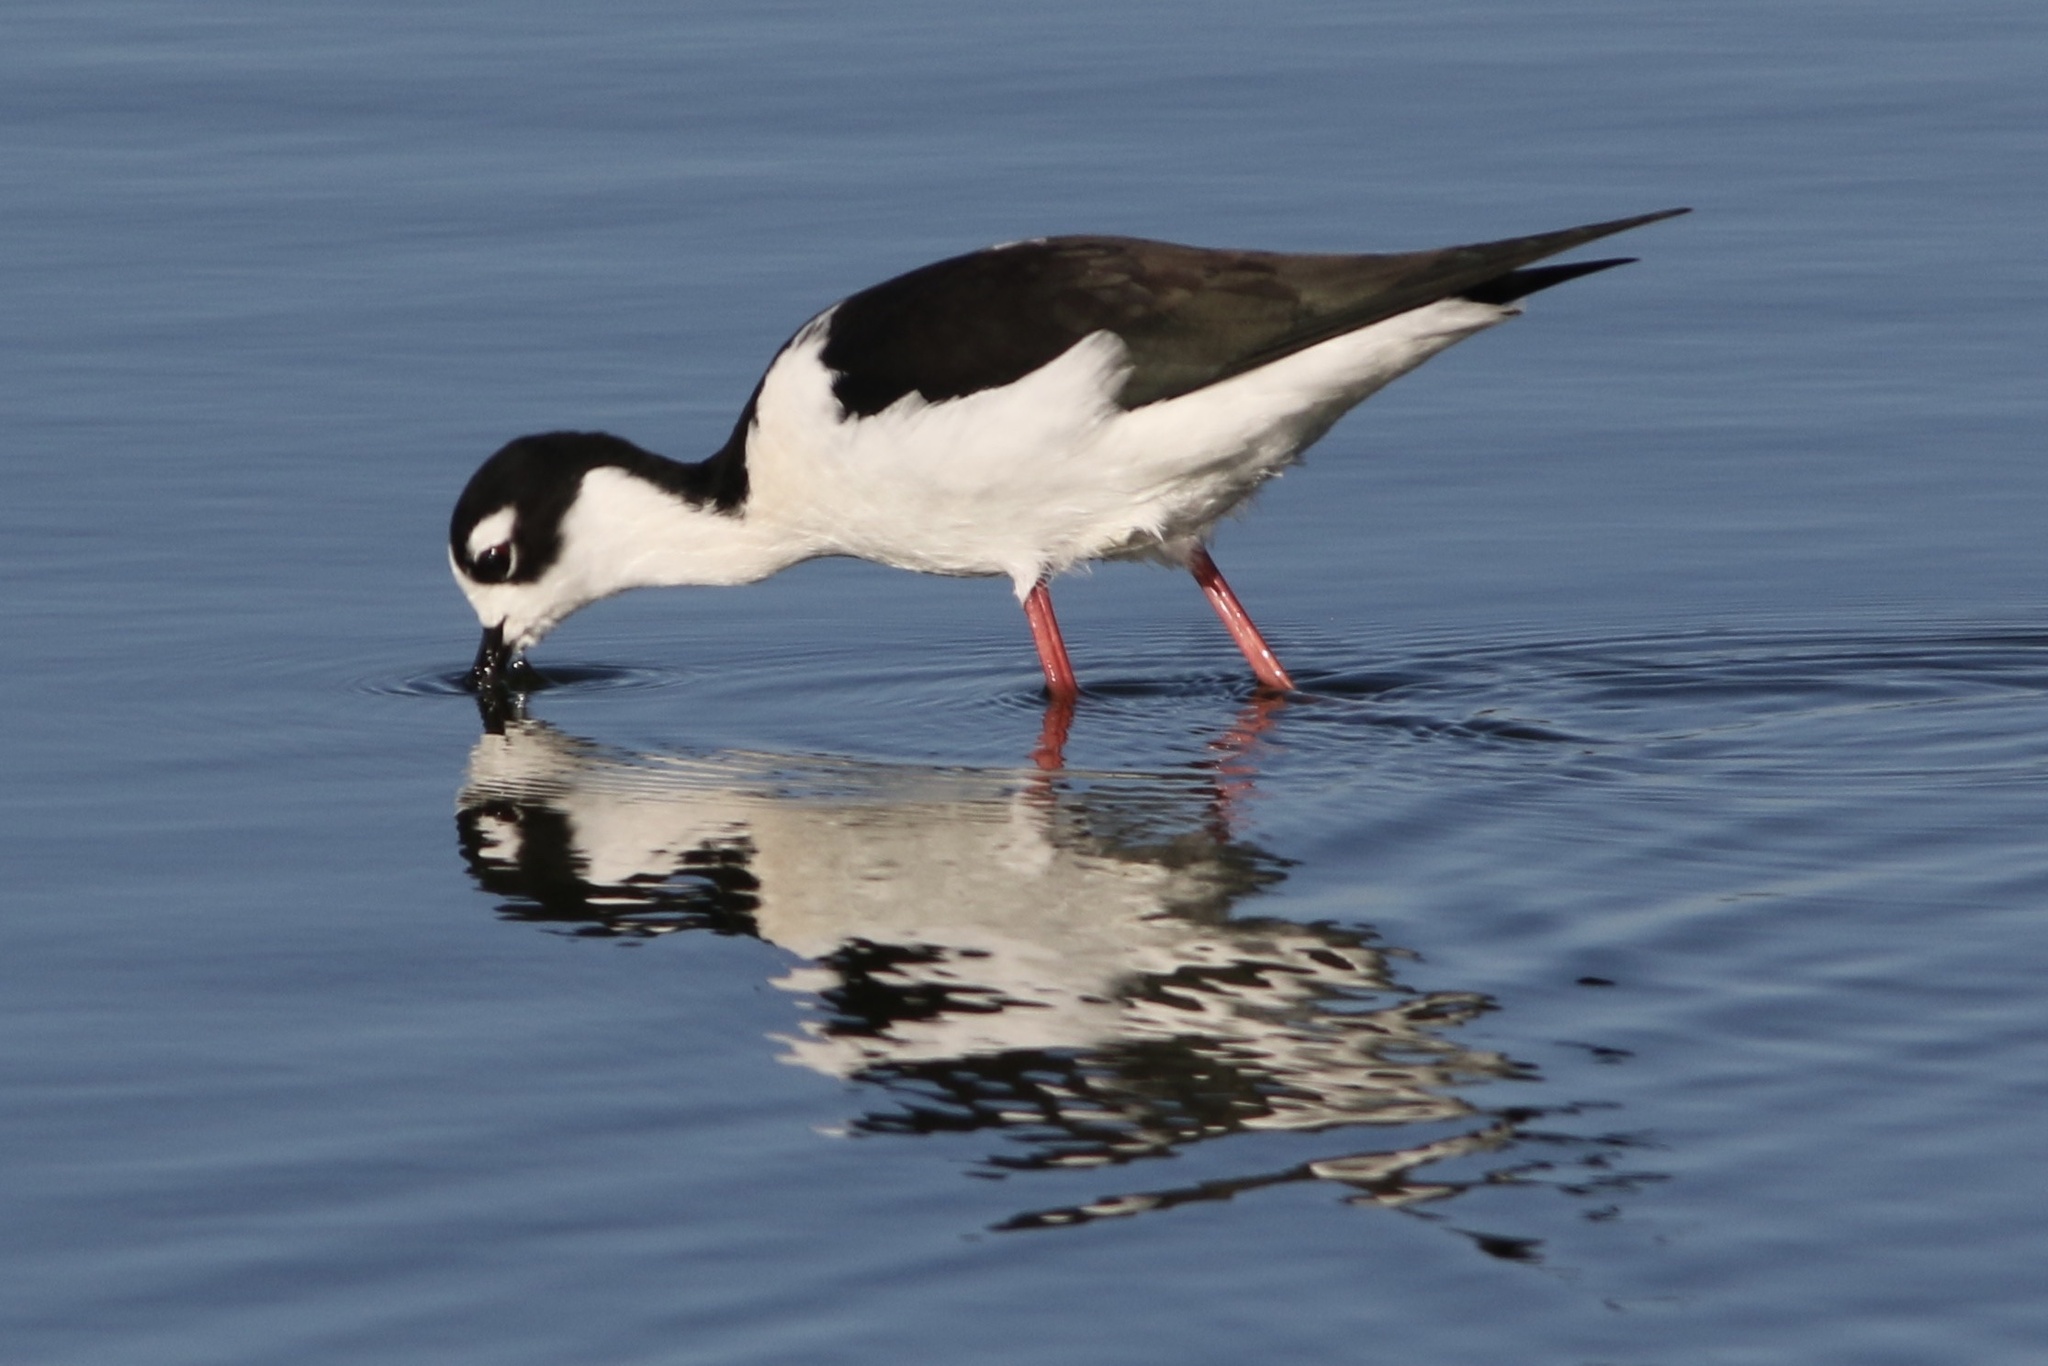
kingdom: Animalia
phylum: Chordata
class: Aves
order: Charadriiformes
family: Recurvirostridae
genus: Himantopus
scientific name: Himantopus mexicanus
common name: Black-necked stilt
